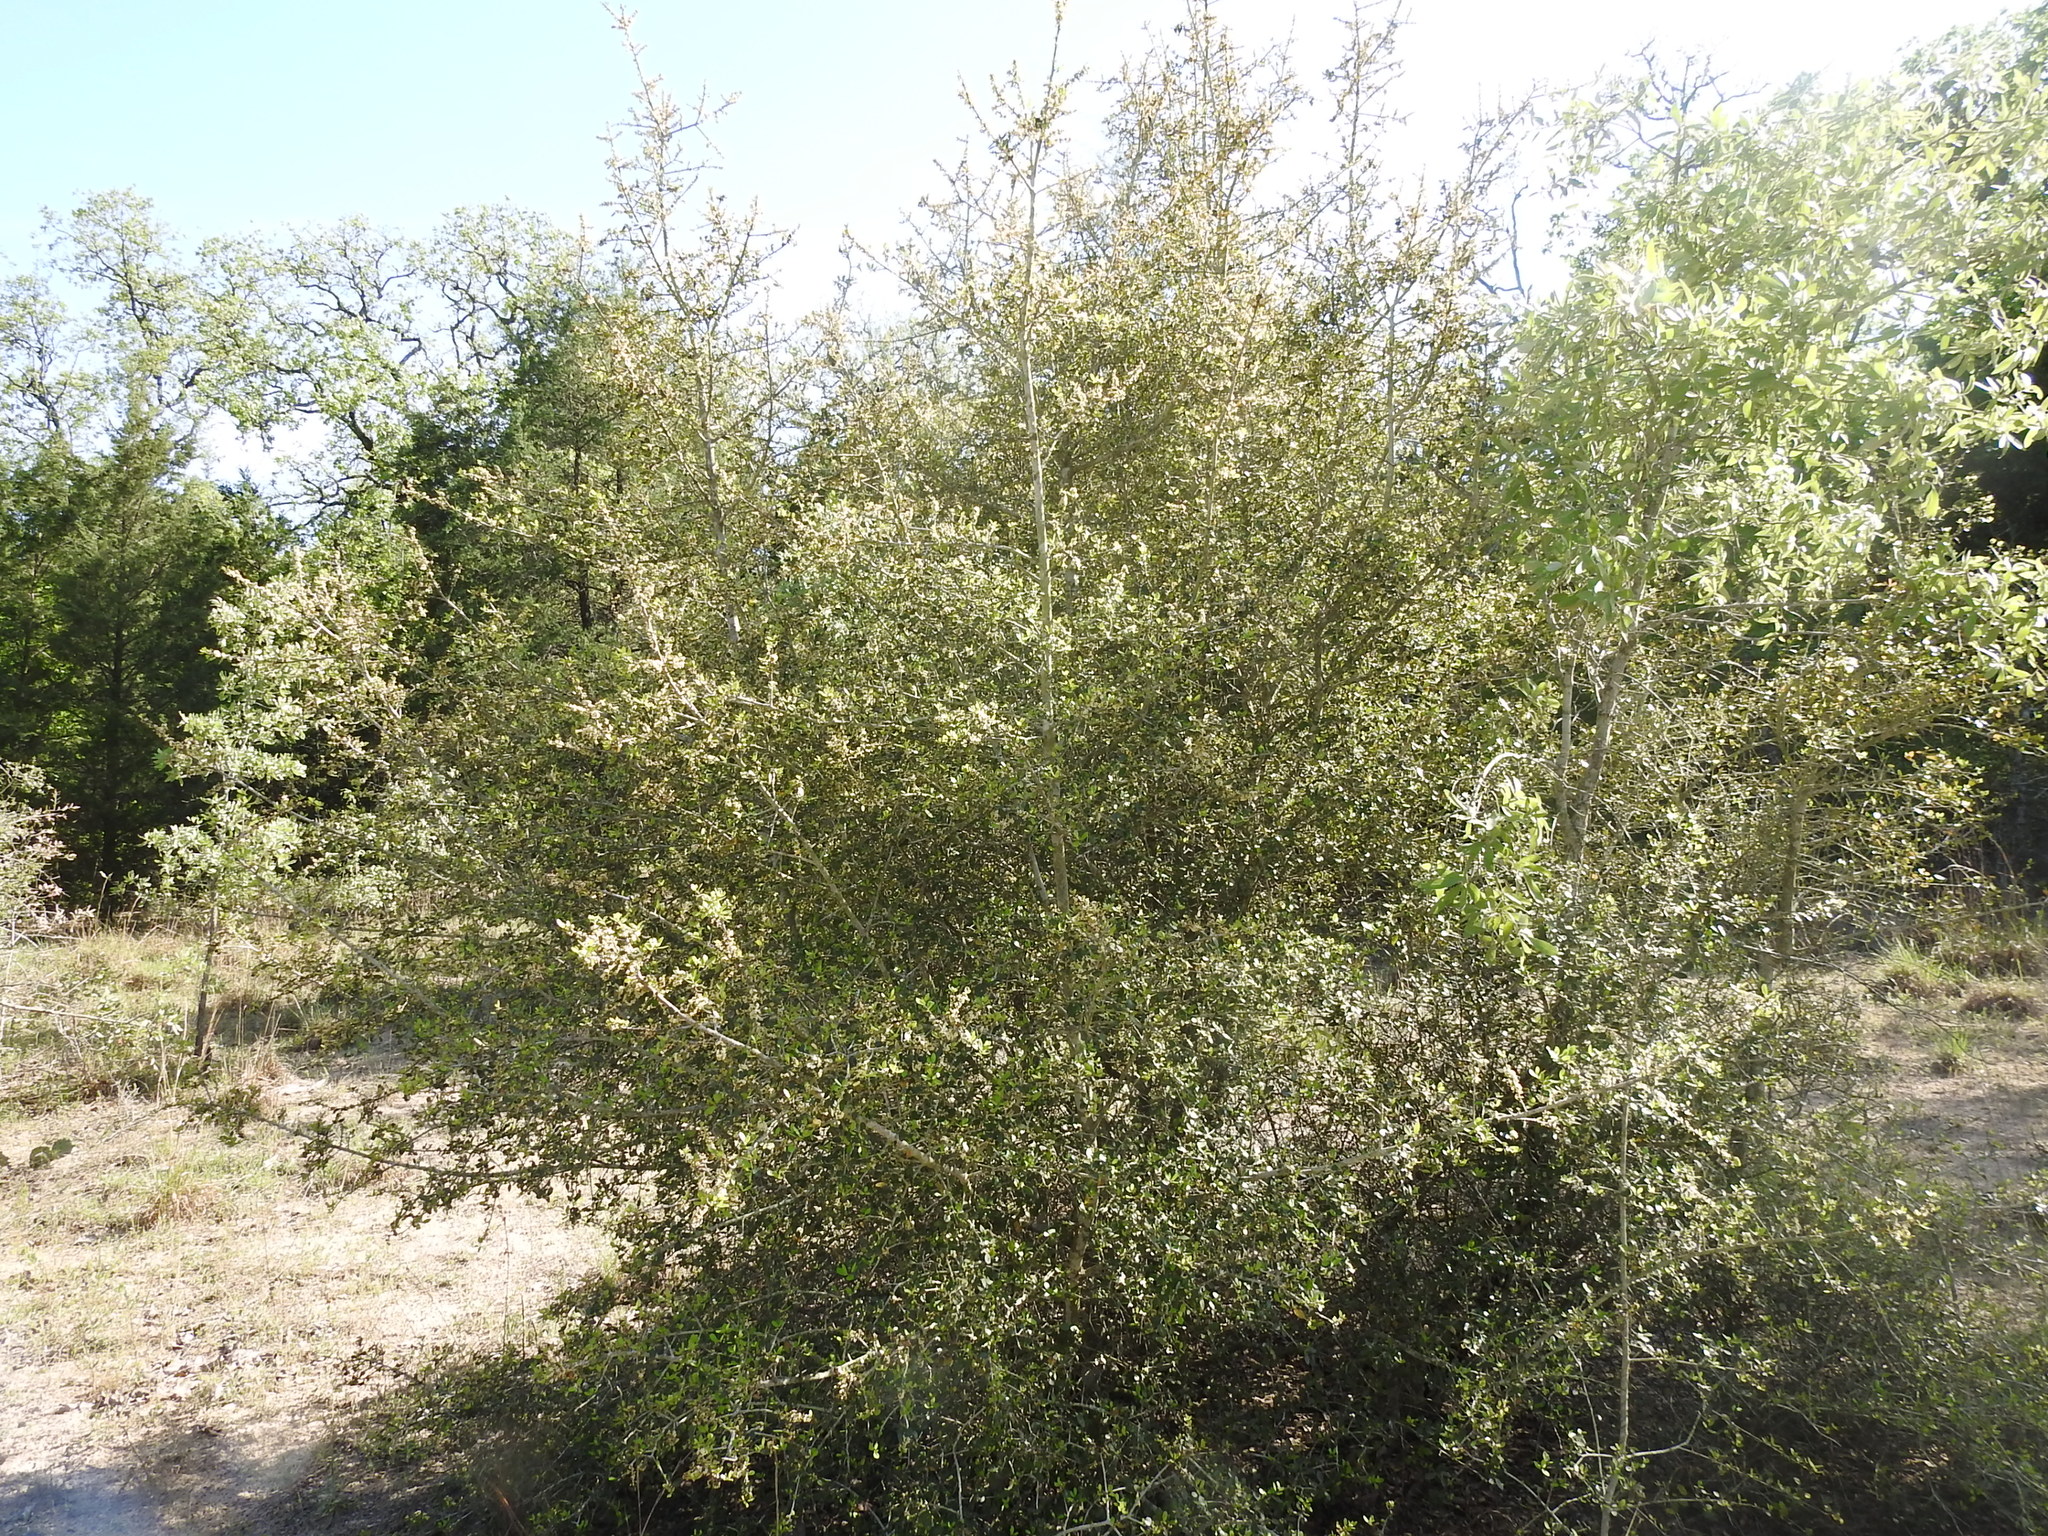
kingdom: Plantae
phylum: Tracheophyta
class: Magnoliopsida
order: Aquifoliales
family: Aquifoliaceae
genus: Ilex
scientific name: Ilex vomitoria
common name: Yaupon holly
